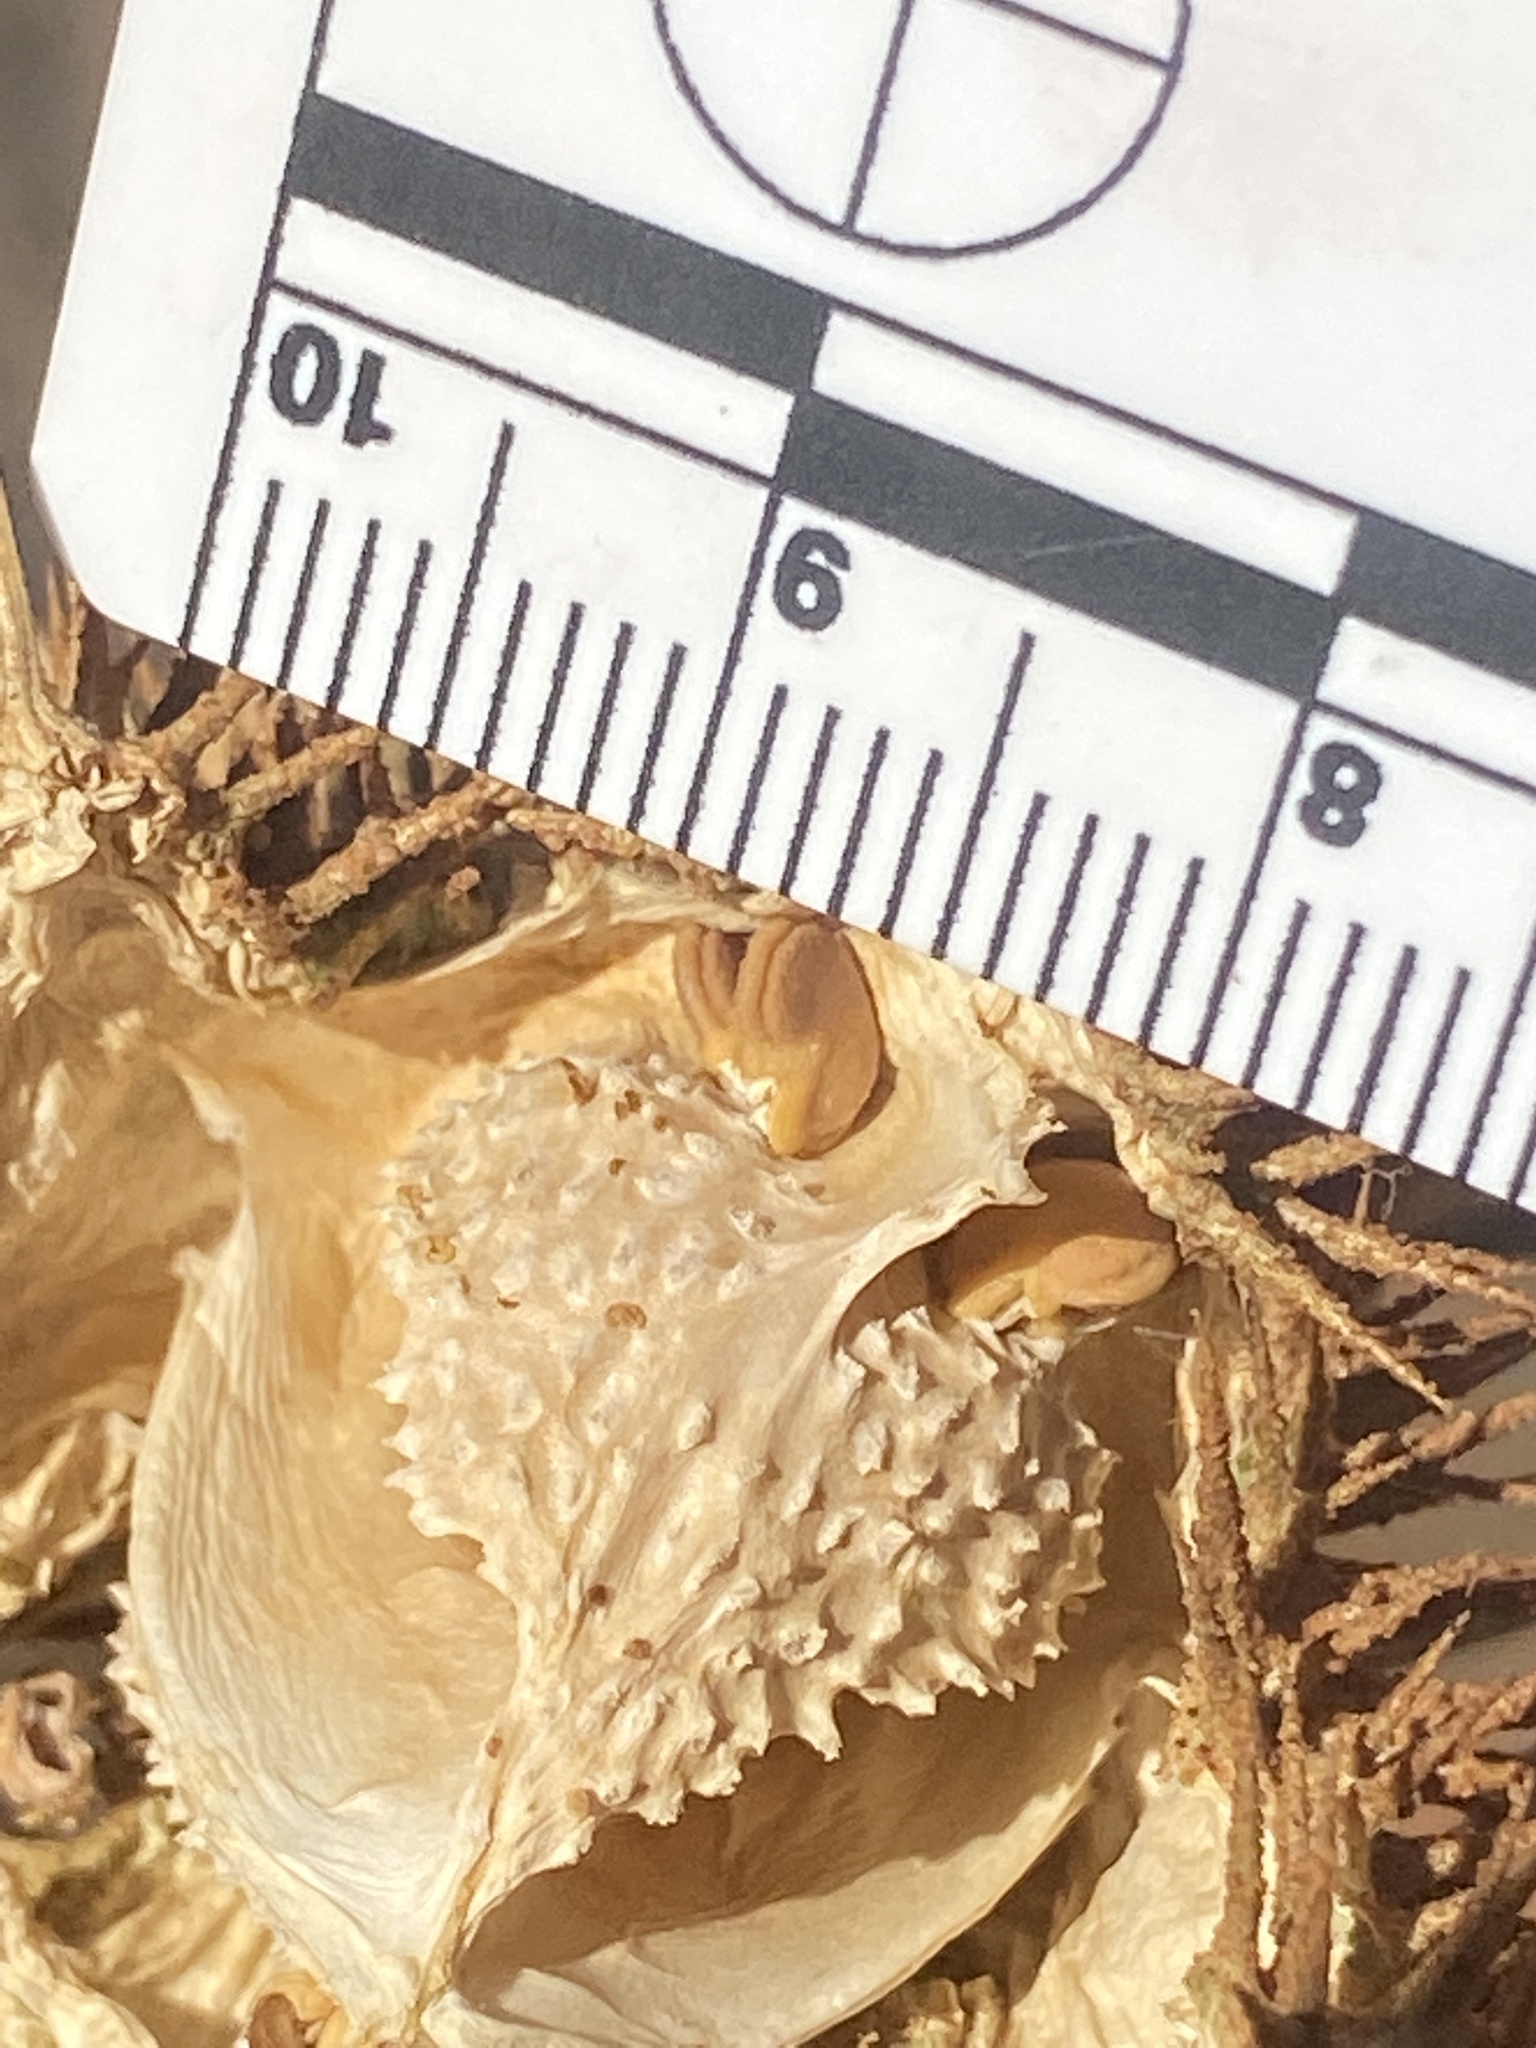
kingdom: Plantae
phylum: Tracheophyta
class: Magnoliopsida
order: Solanales
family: Solanaceae
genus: Datura
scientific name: Datura wrightii
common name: Sacred thorn-apple
